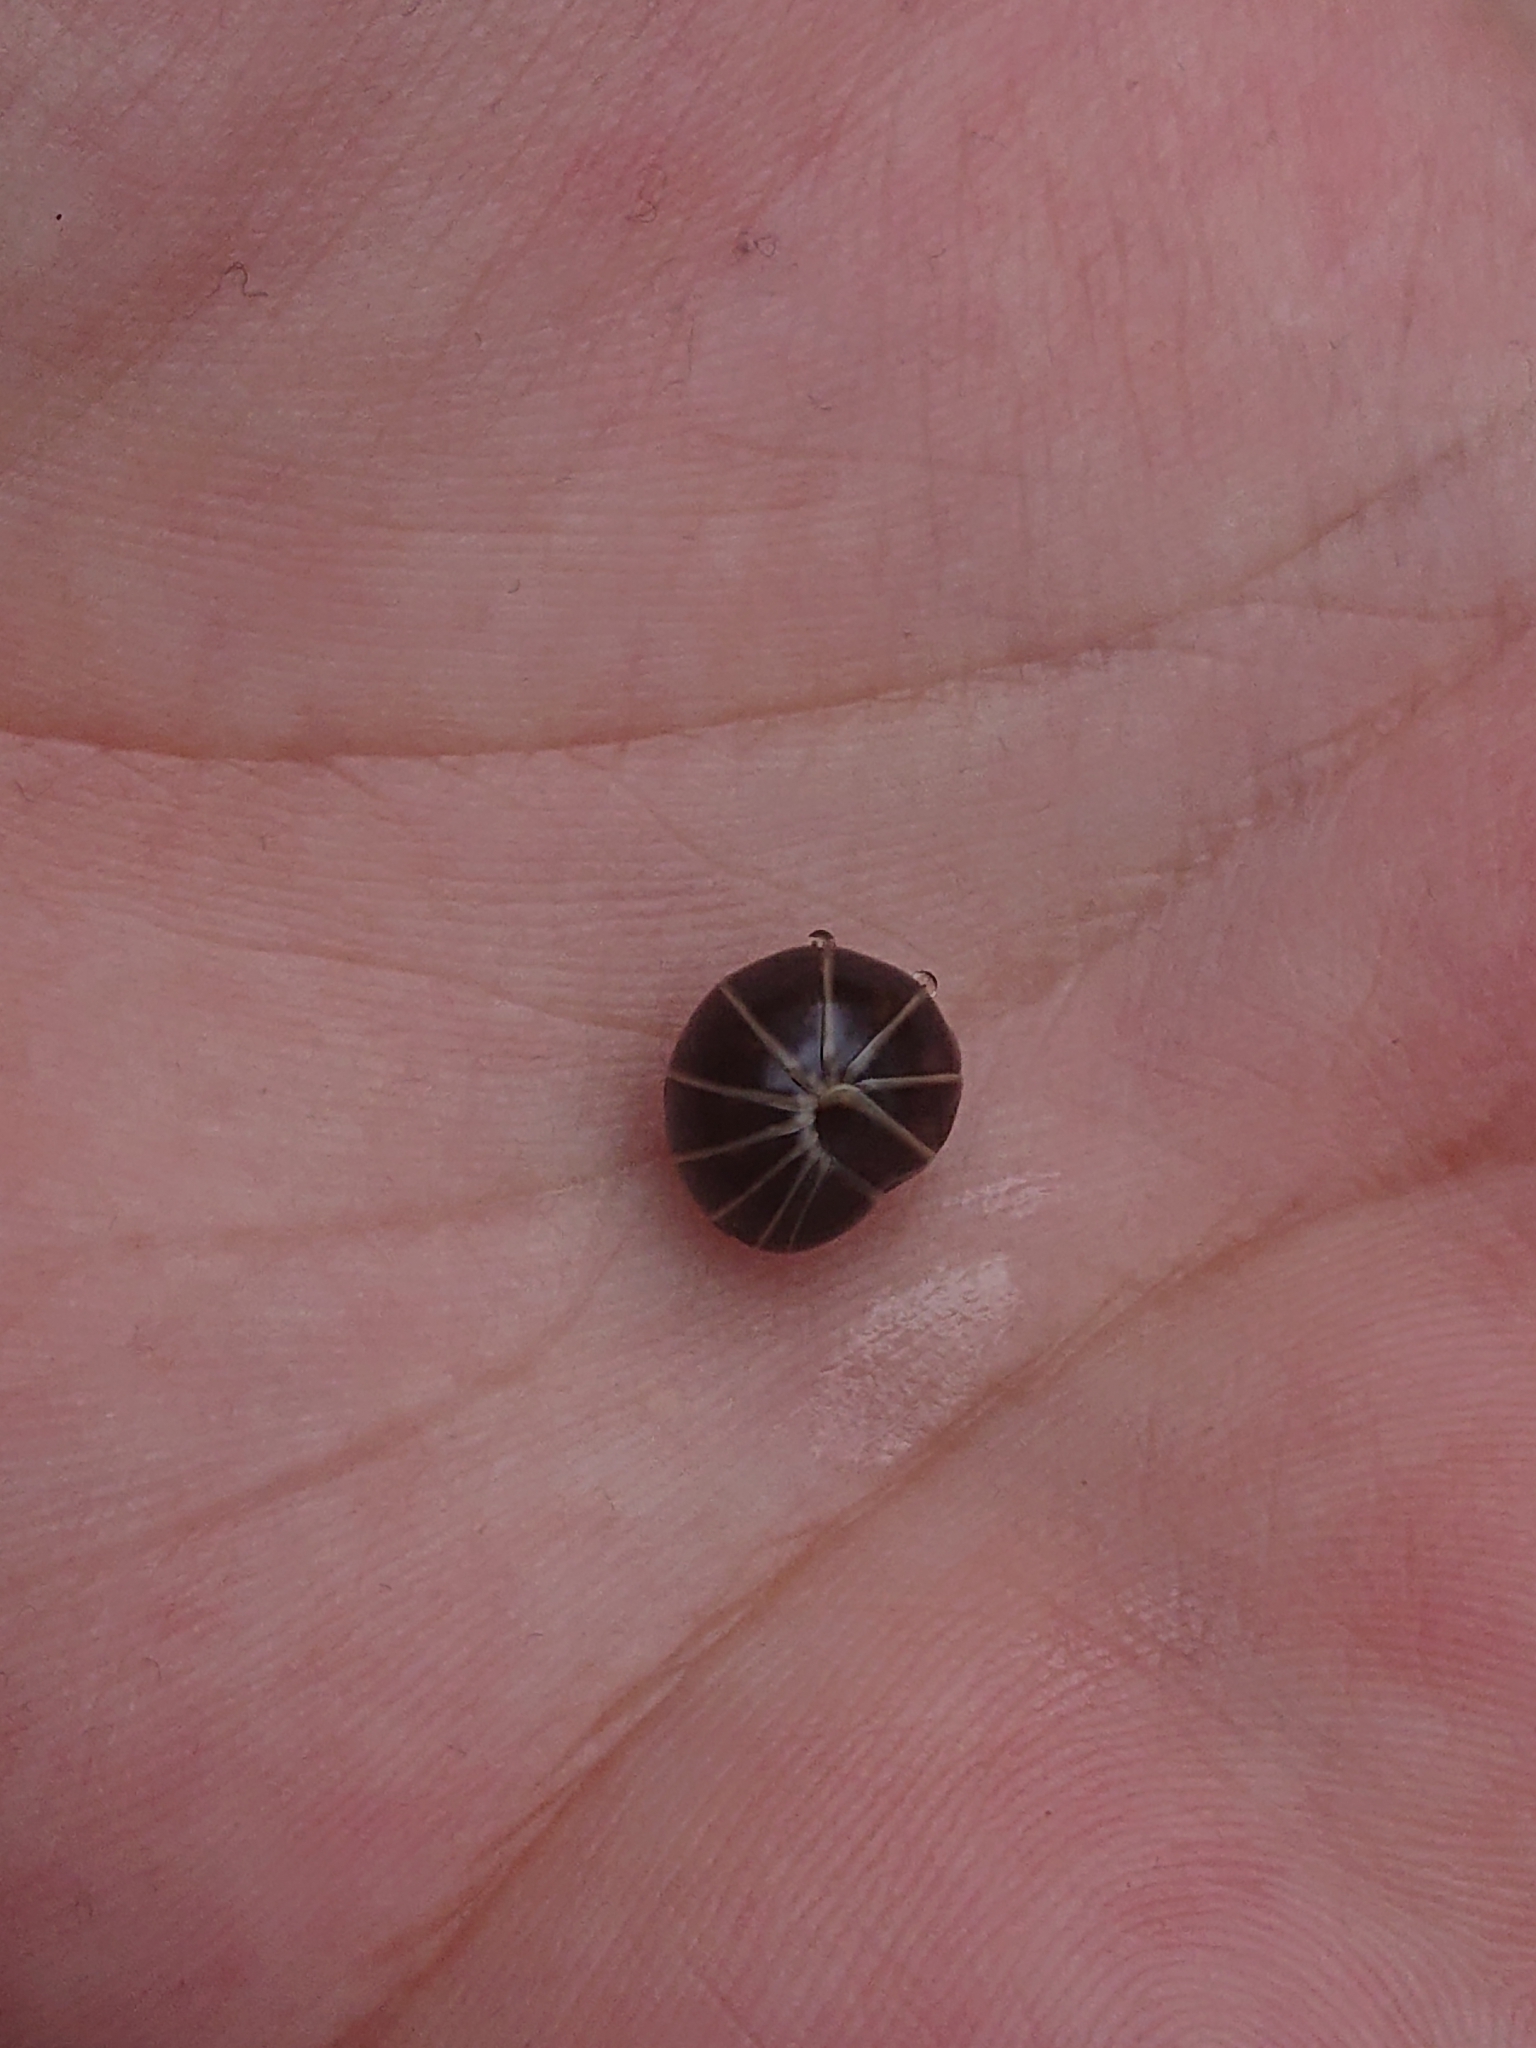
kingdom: Animalia
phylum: Arthropoda
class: Diplopoda
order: Glomerida
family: Glomeridae
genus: Glomeris
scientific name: Glomeris marginata
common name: Bordered pill millipede
